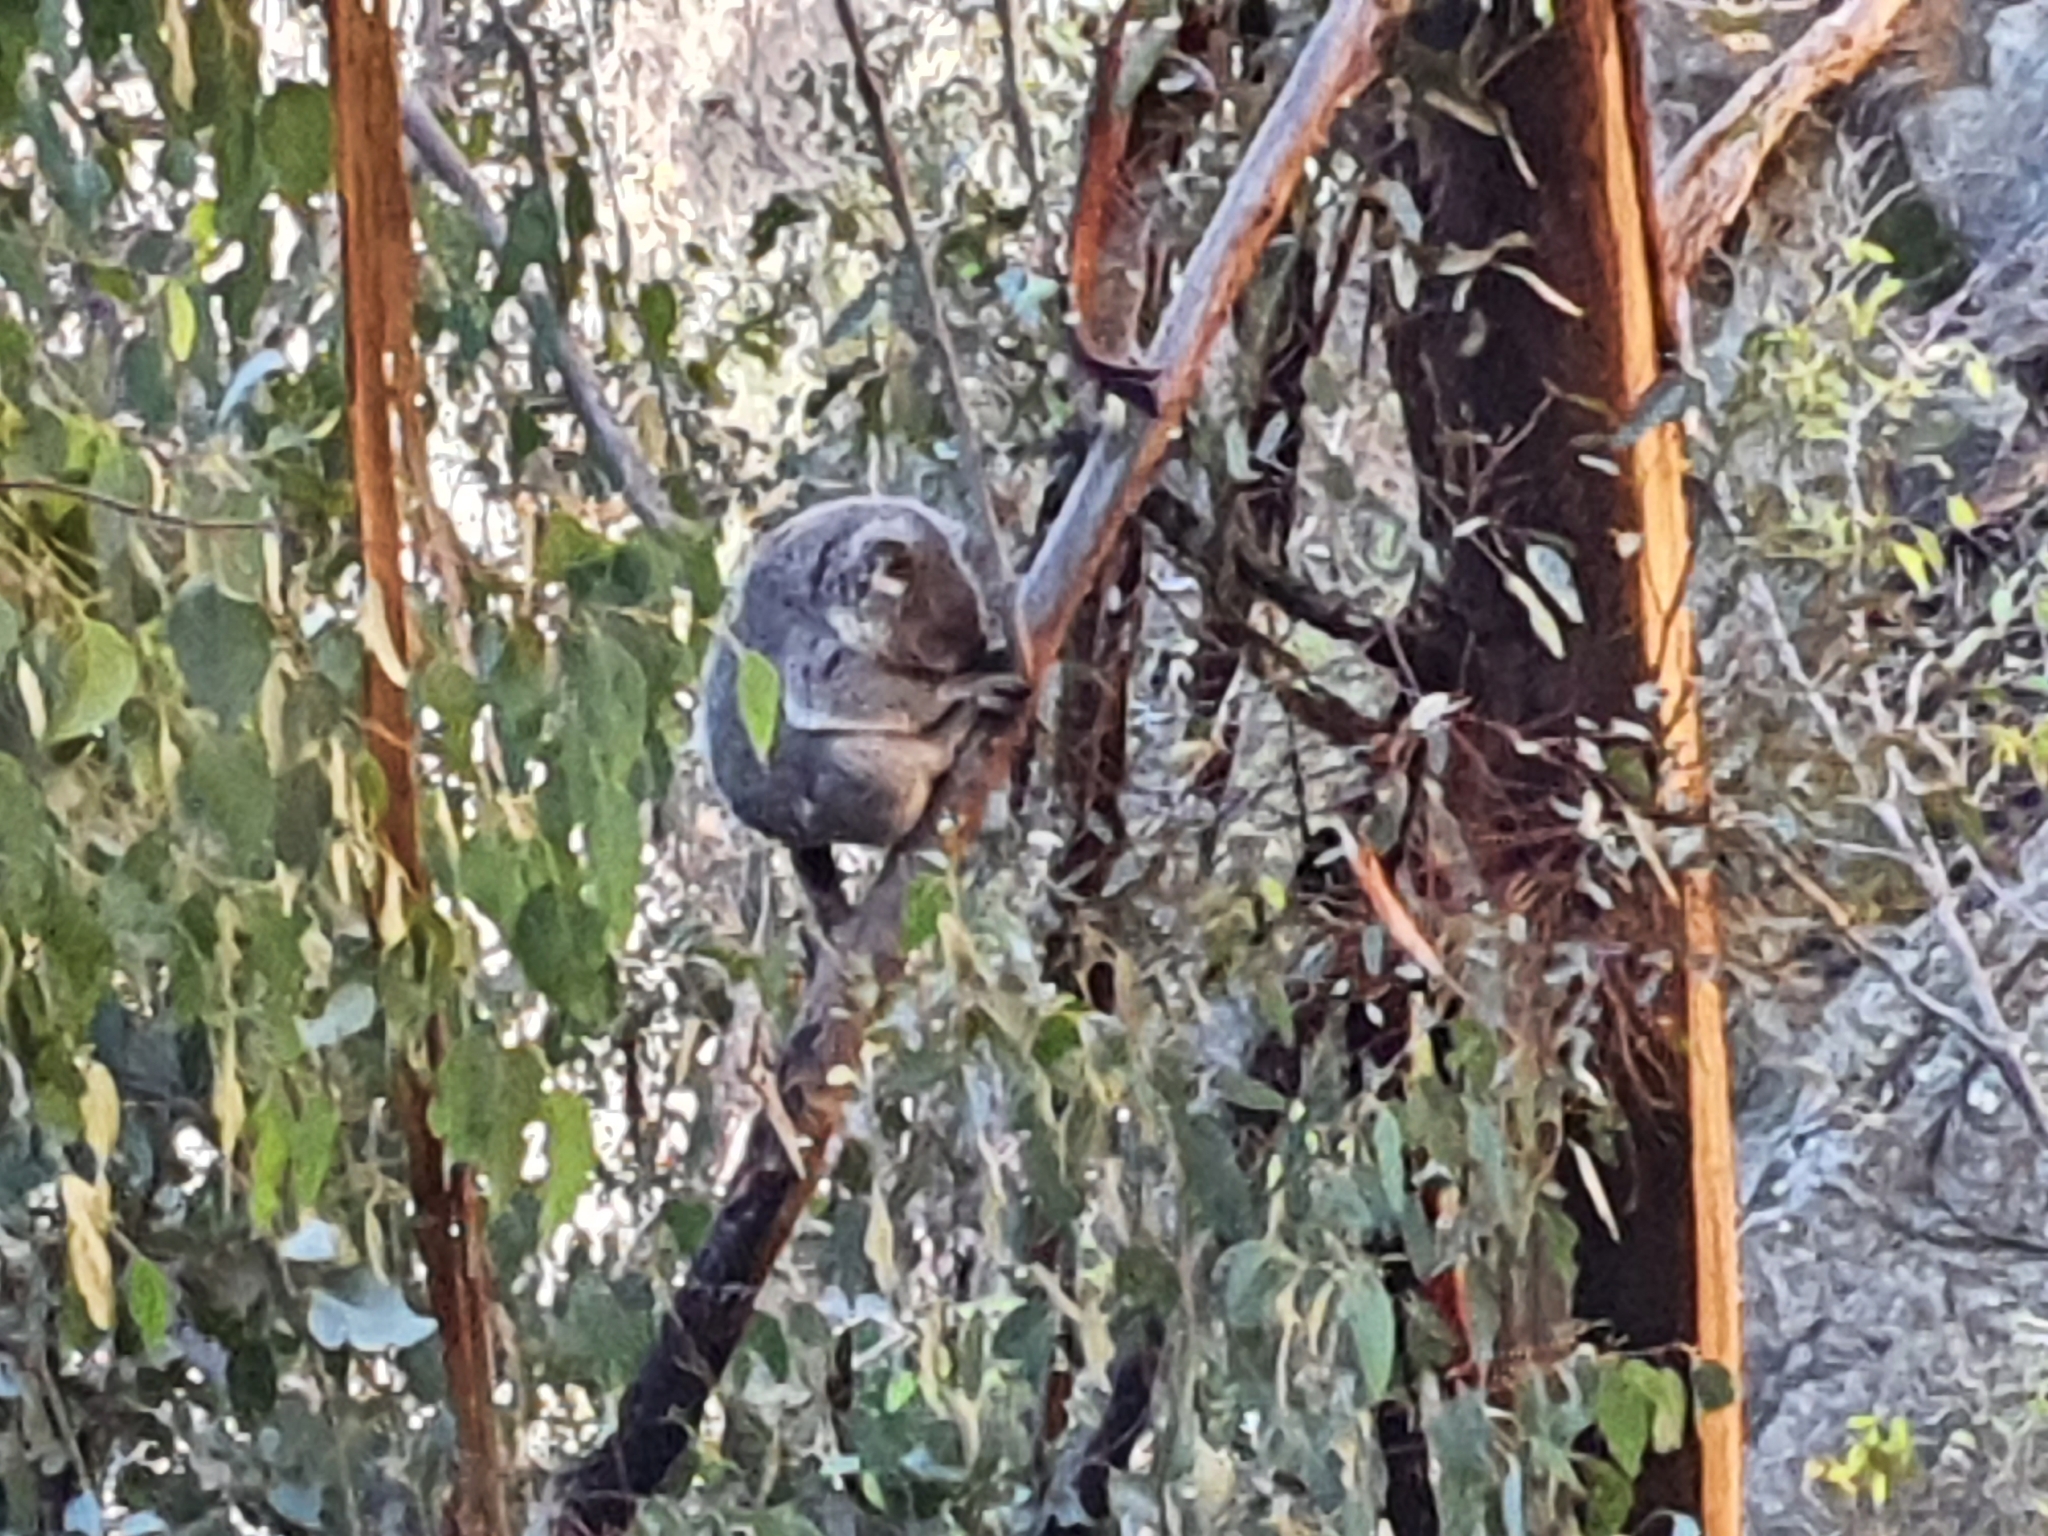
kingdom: Animalia
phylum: Chordata
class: Mammalia
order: Diprotodontia
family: Phascolarctidae
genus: Phascolarctos
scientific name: Phascolarctos cinereus
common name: Koala
